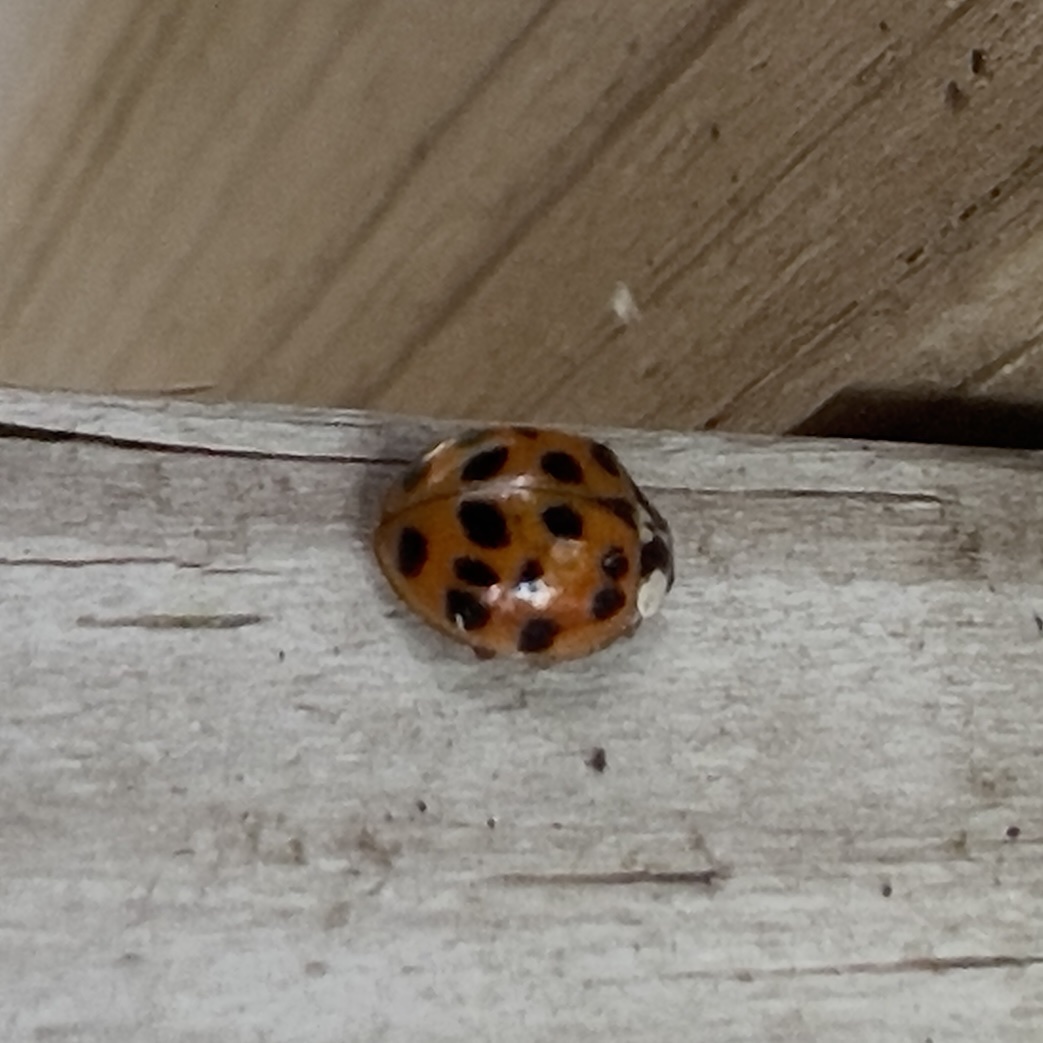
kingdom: Animalia
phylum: Arthropoda
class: Insecta
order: Coleoptera
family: Coccinellidae
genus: Harmonia
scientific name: Harmonia axyridis
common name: Harlequin ladybird
